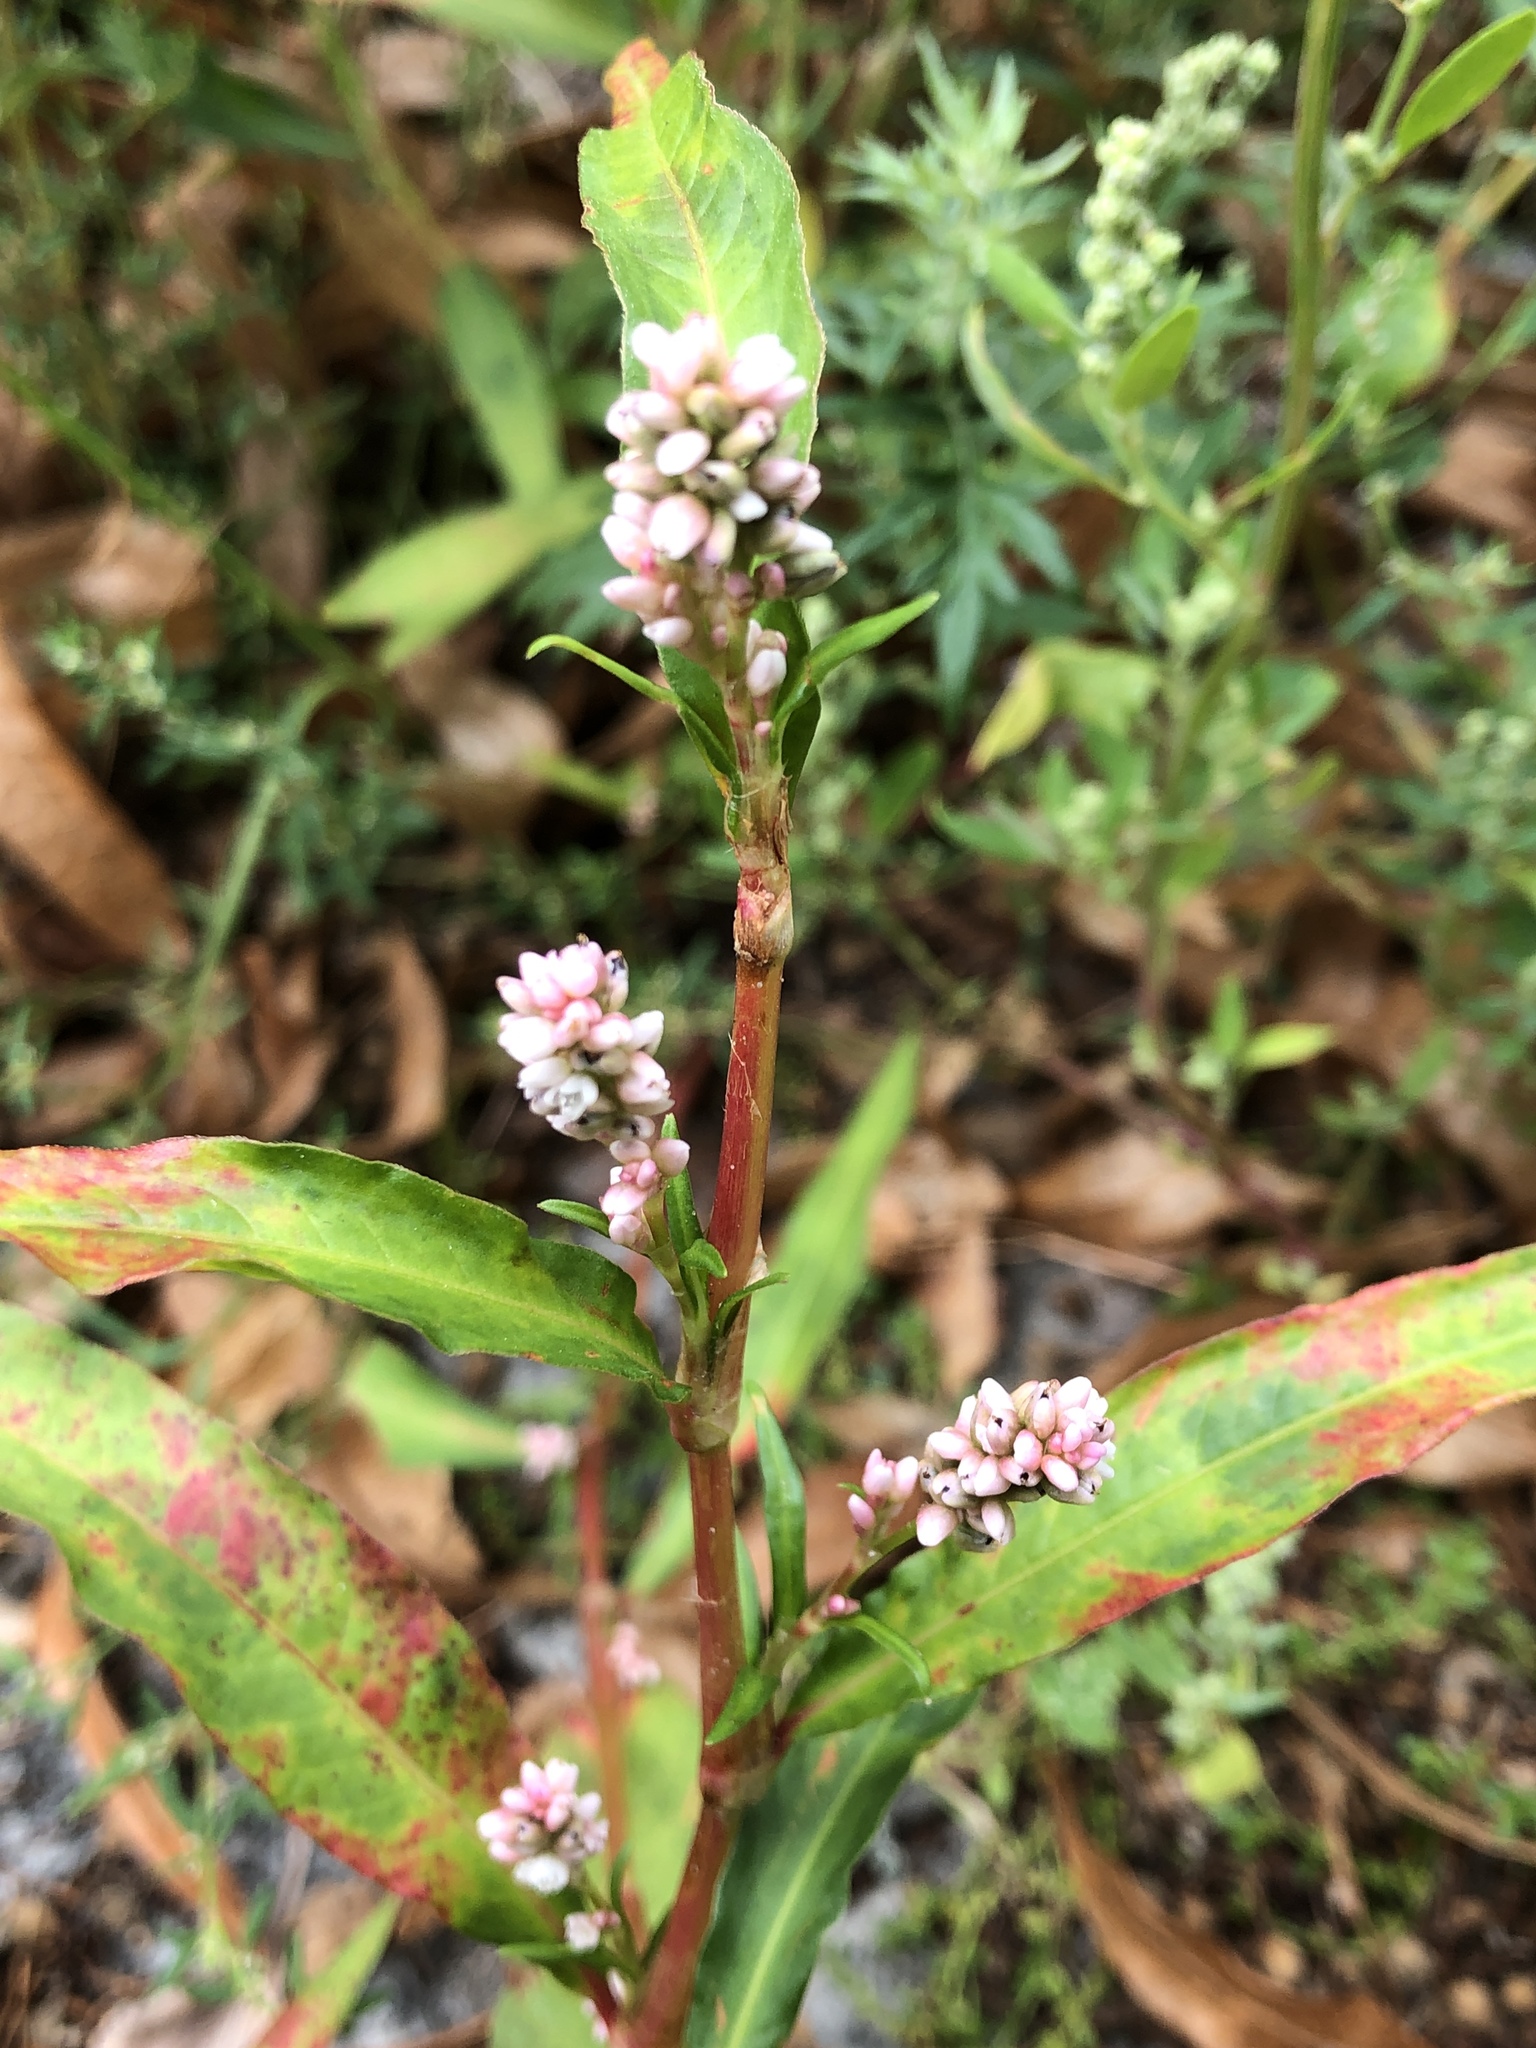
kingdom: Plantae
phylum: Tracheophyta
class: Magnoliopsida
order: Caryophyllales
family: Polygonaceae
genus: Persicaria
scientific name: Persicaria maculosa
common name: Redshank
